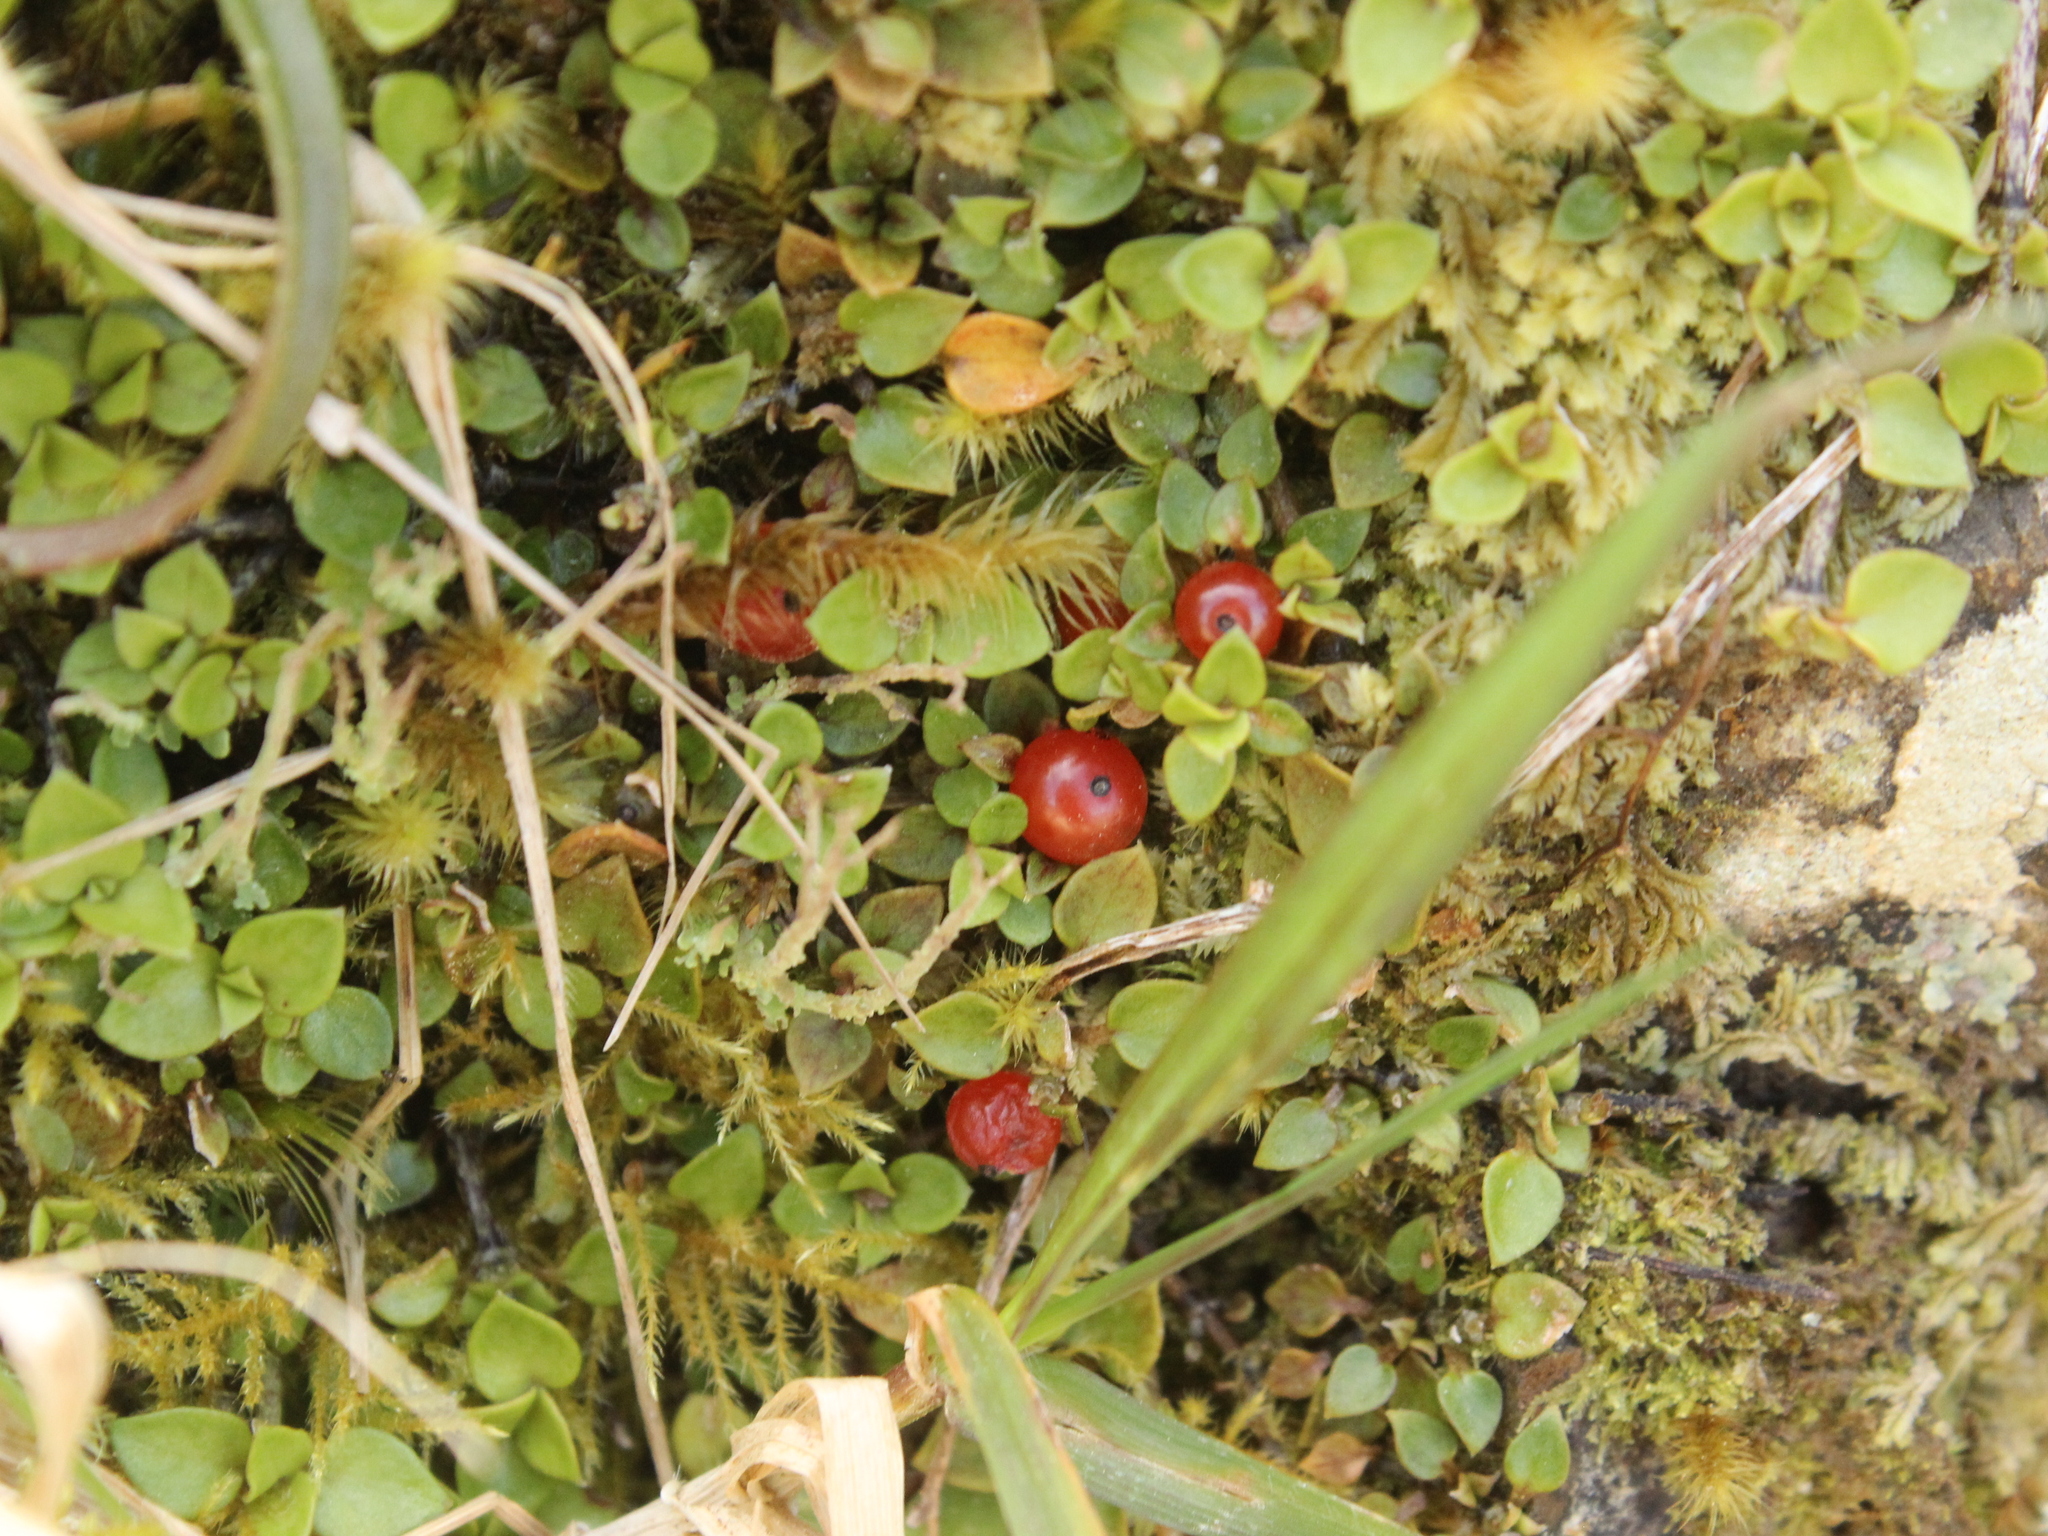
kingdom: Plantae
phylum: Tracheophyta
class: Magnoliopsida
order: Gentianales
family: Rubiaceae
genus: Nertera
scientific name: Nertera granadensis
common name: Beadplant
